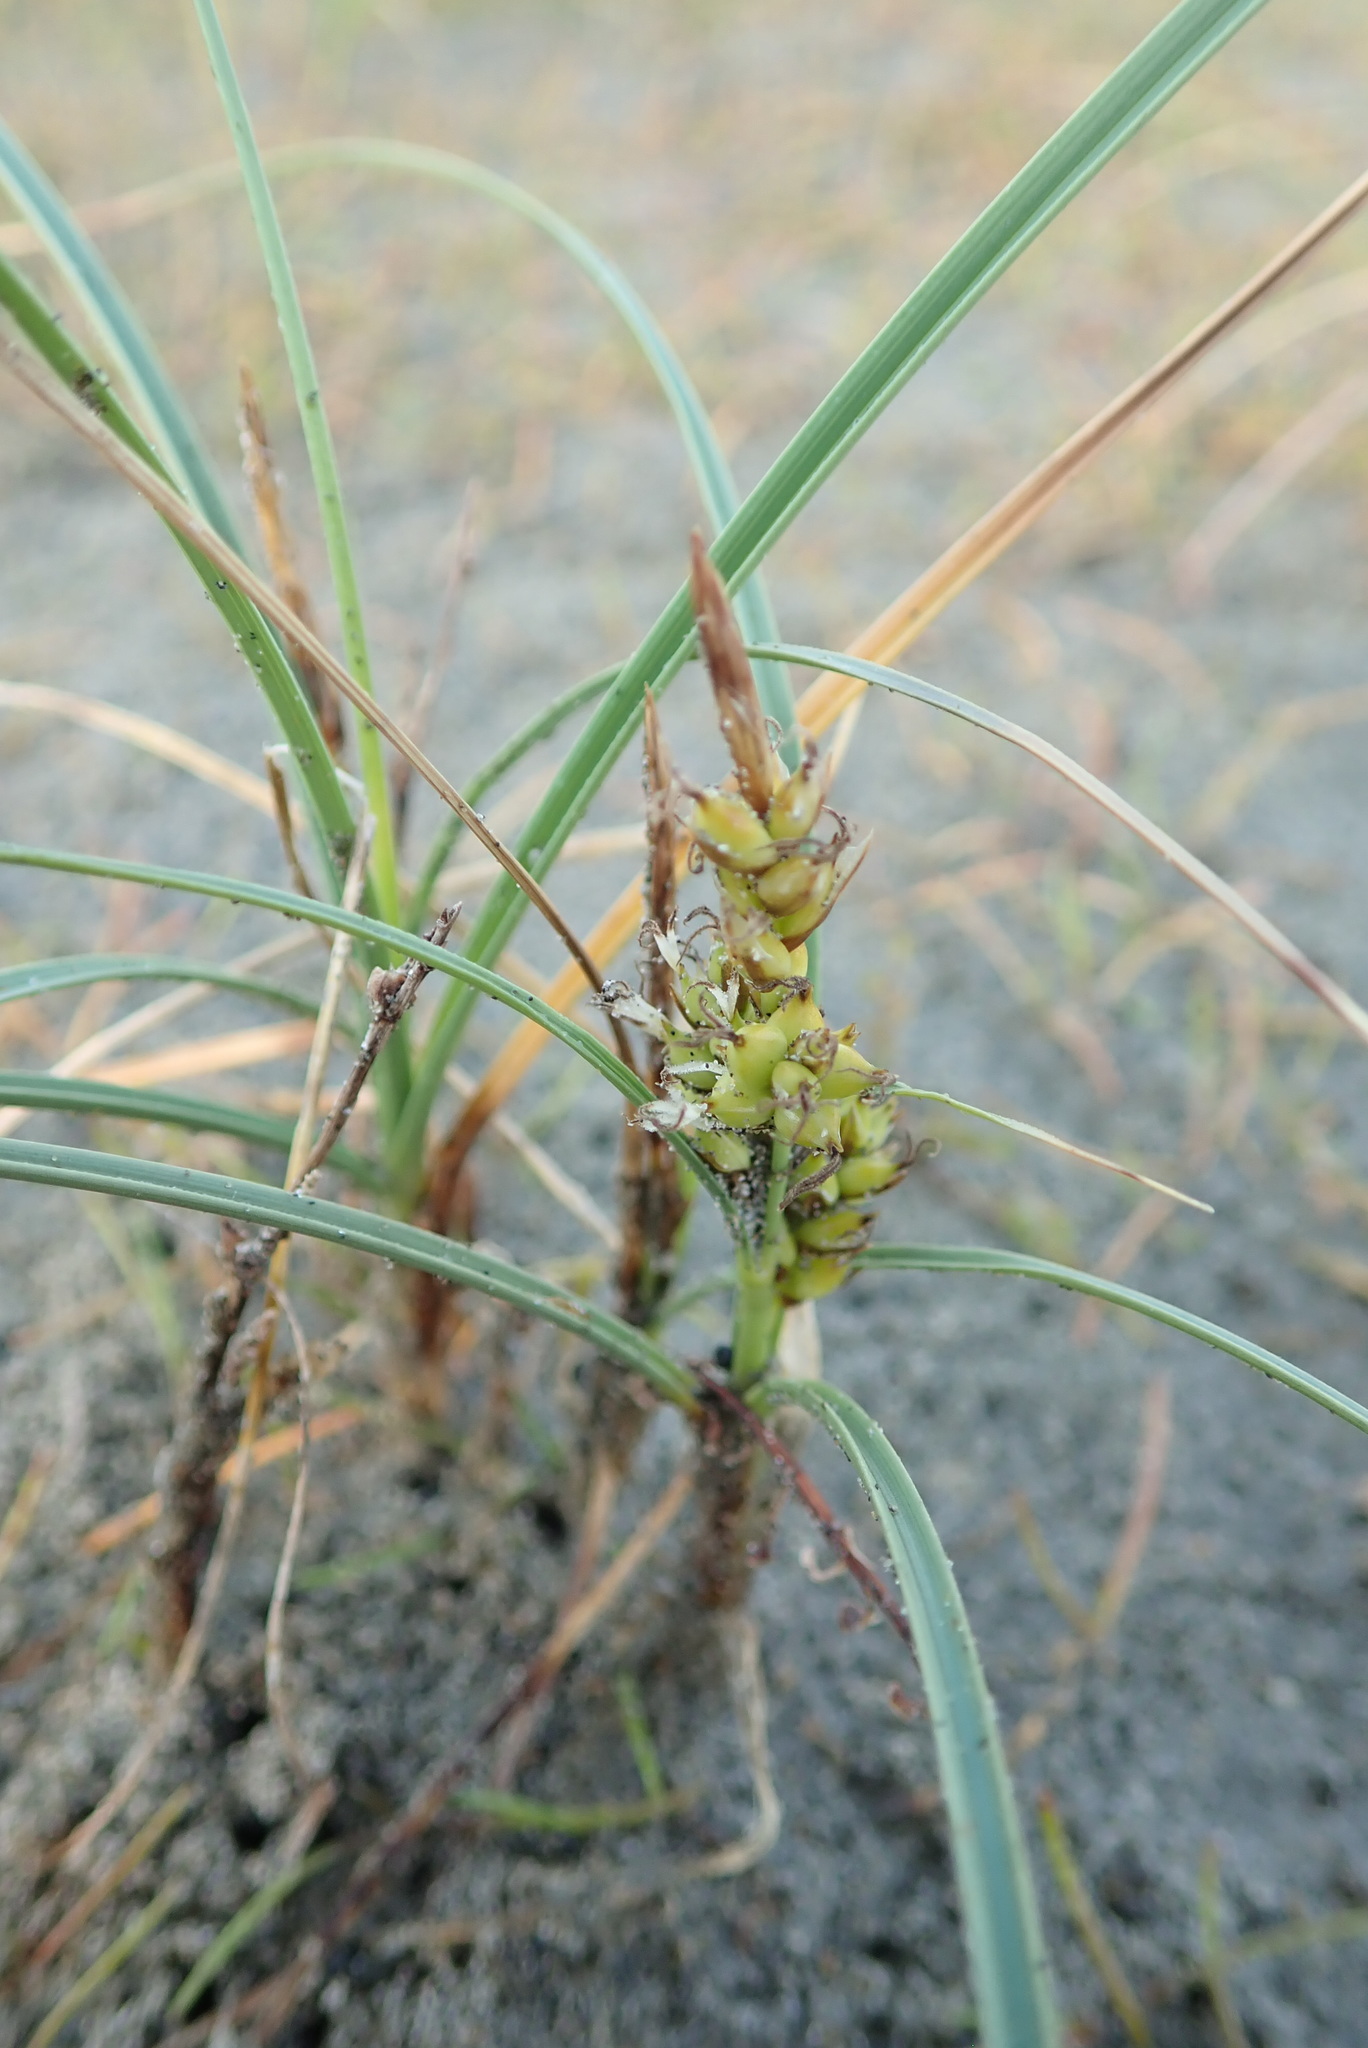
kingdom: Plantae
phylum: Tracheophyta
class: Liliopsida
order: Poales
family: Cyperaceae
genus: Carex
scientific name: Carex pumila
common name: Dwarf sedge
